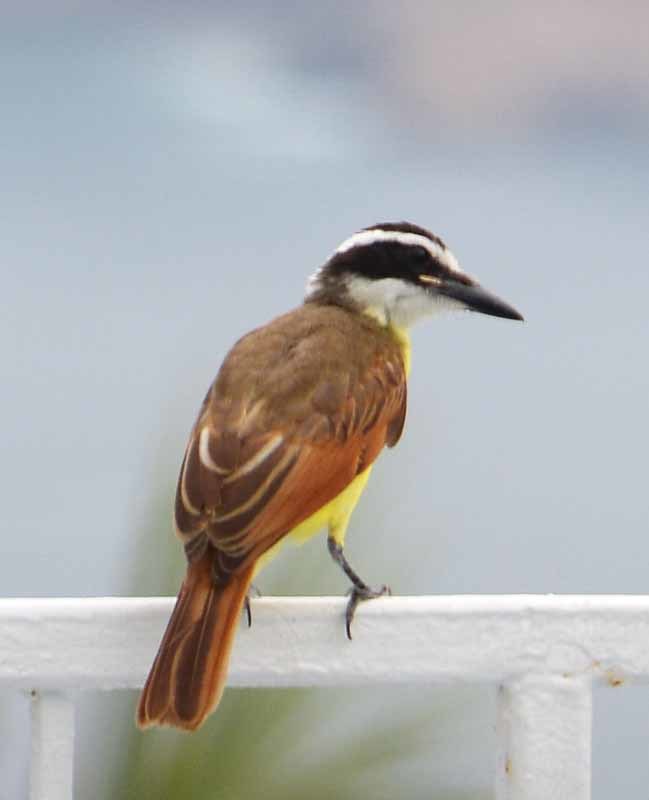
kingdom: Animalia
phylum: Chordata
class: Aves
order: Passeriformes
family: Tyrannidae
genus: Pitangus
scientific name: Pitangus sulphuratus
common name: Great kiskadee
